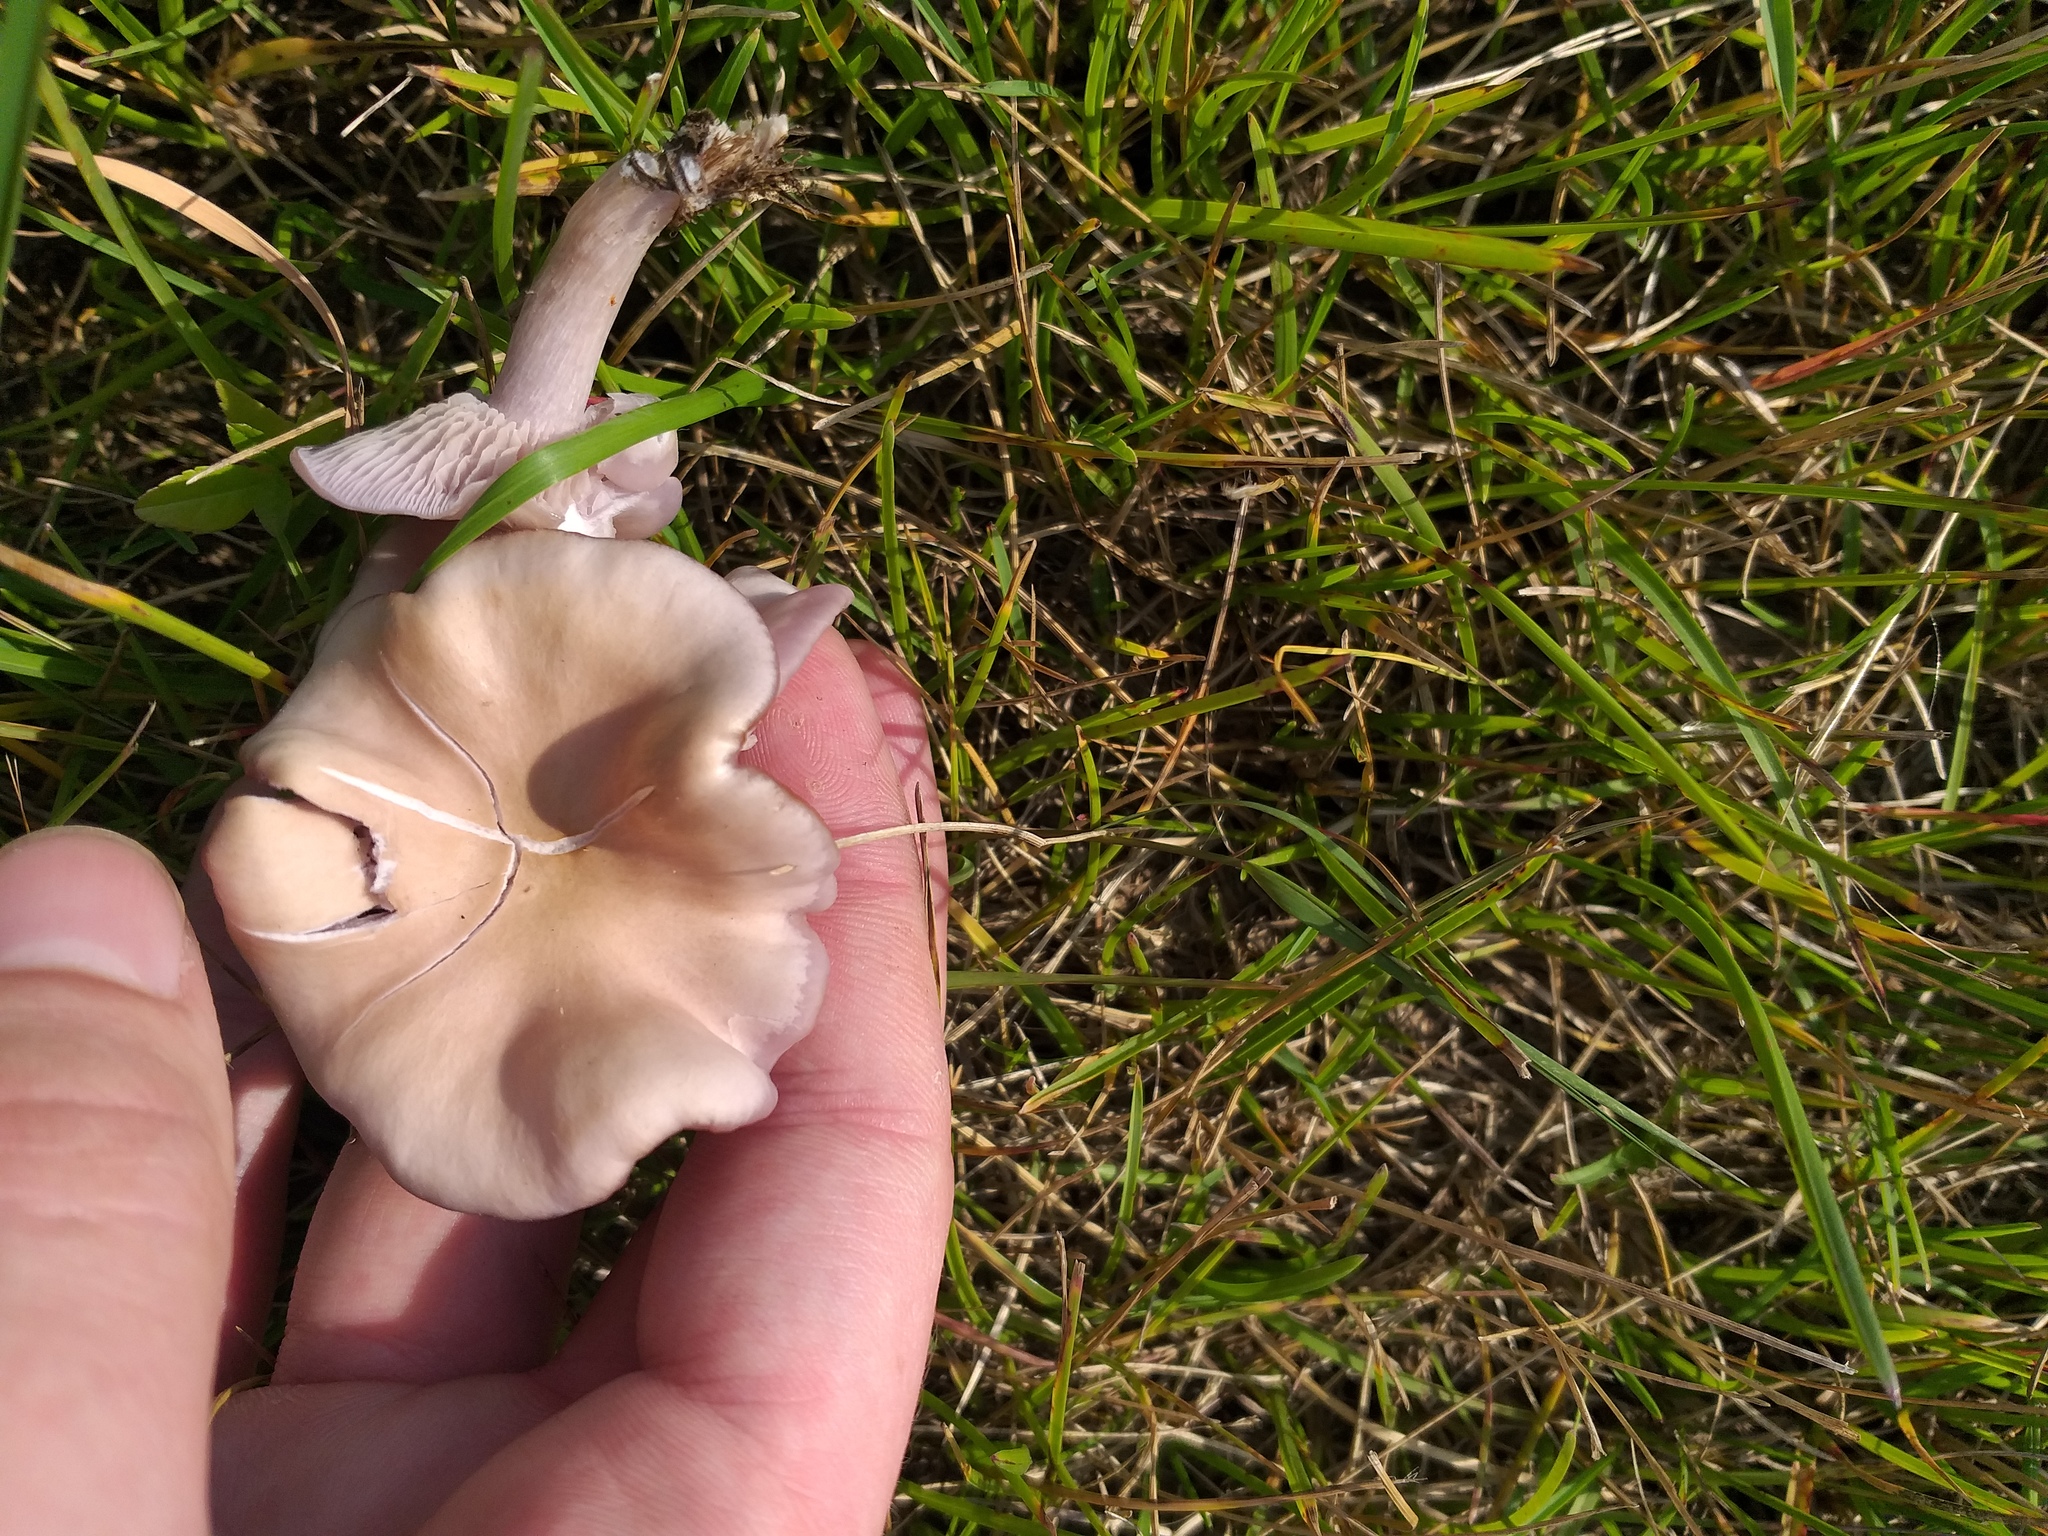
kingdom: Fungi
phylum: Basidiomycota
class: Agaricomycetes
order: Agaricales
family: Tricholomataceae
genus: Collybia
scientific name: Collybia
